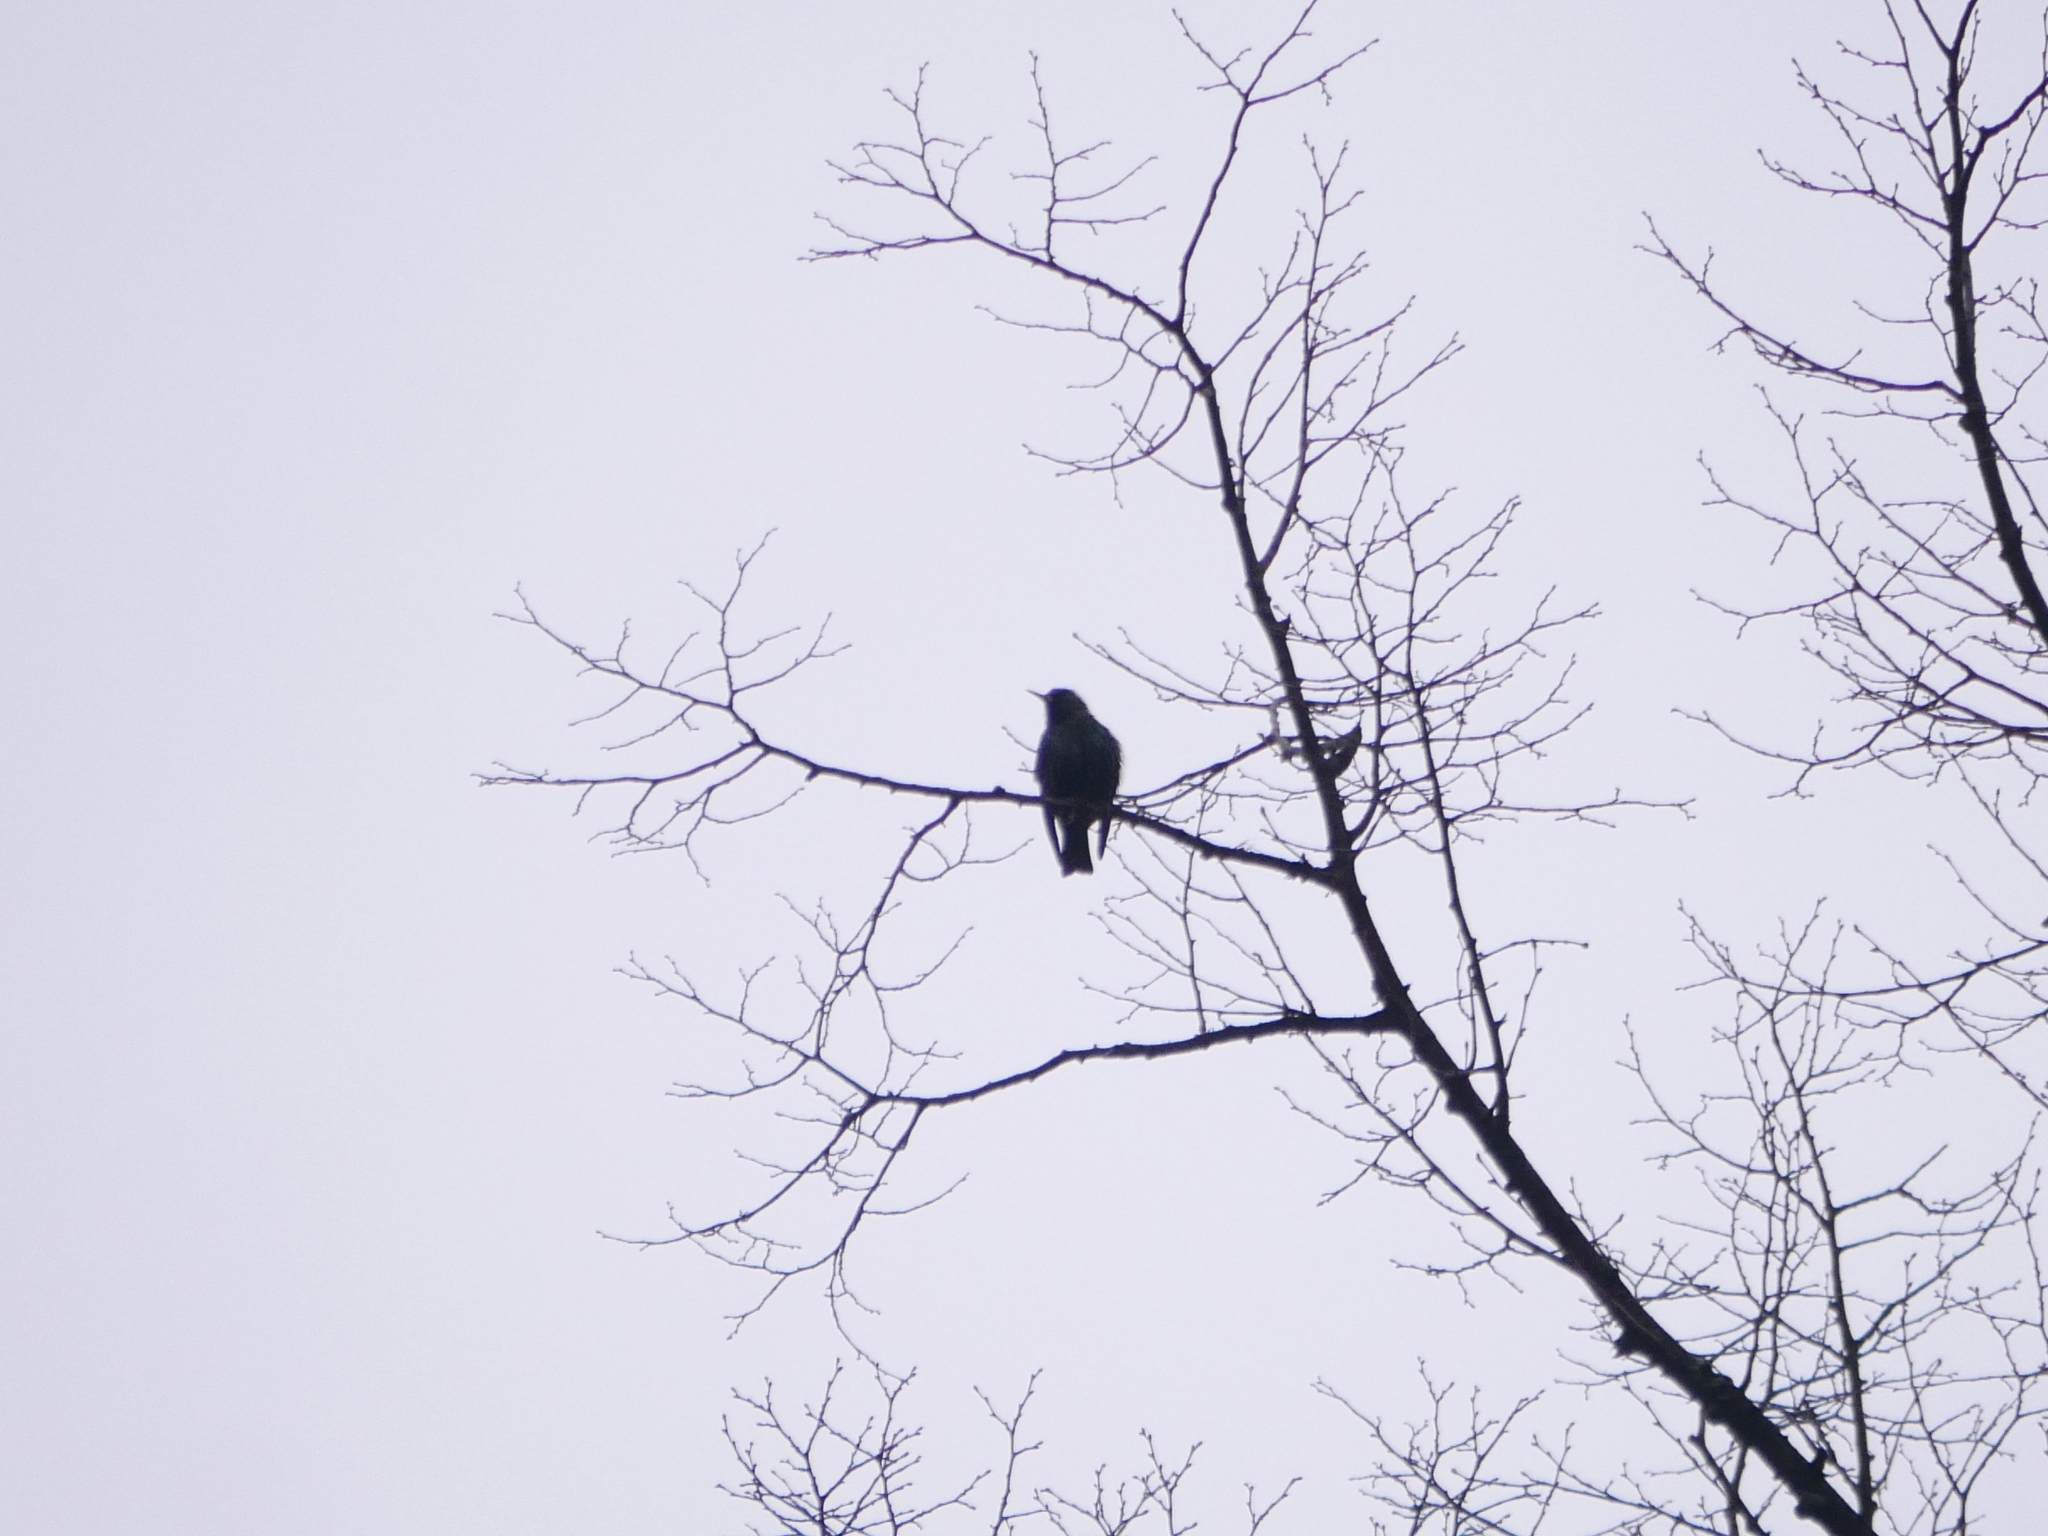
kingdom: Animalia
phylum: Chordata
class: Aves
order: Passeriformes
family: Sturnidae
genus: Sturnus
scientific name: Sturnus vulgaris
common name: Common starling
